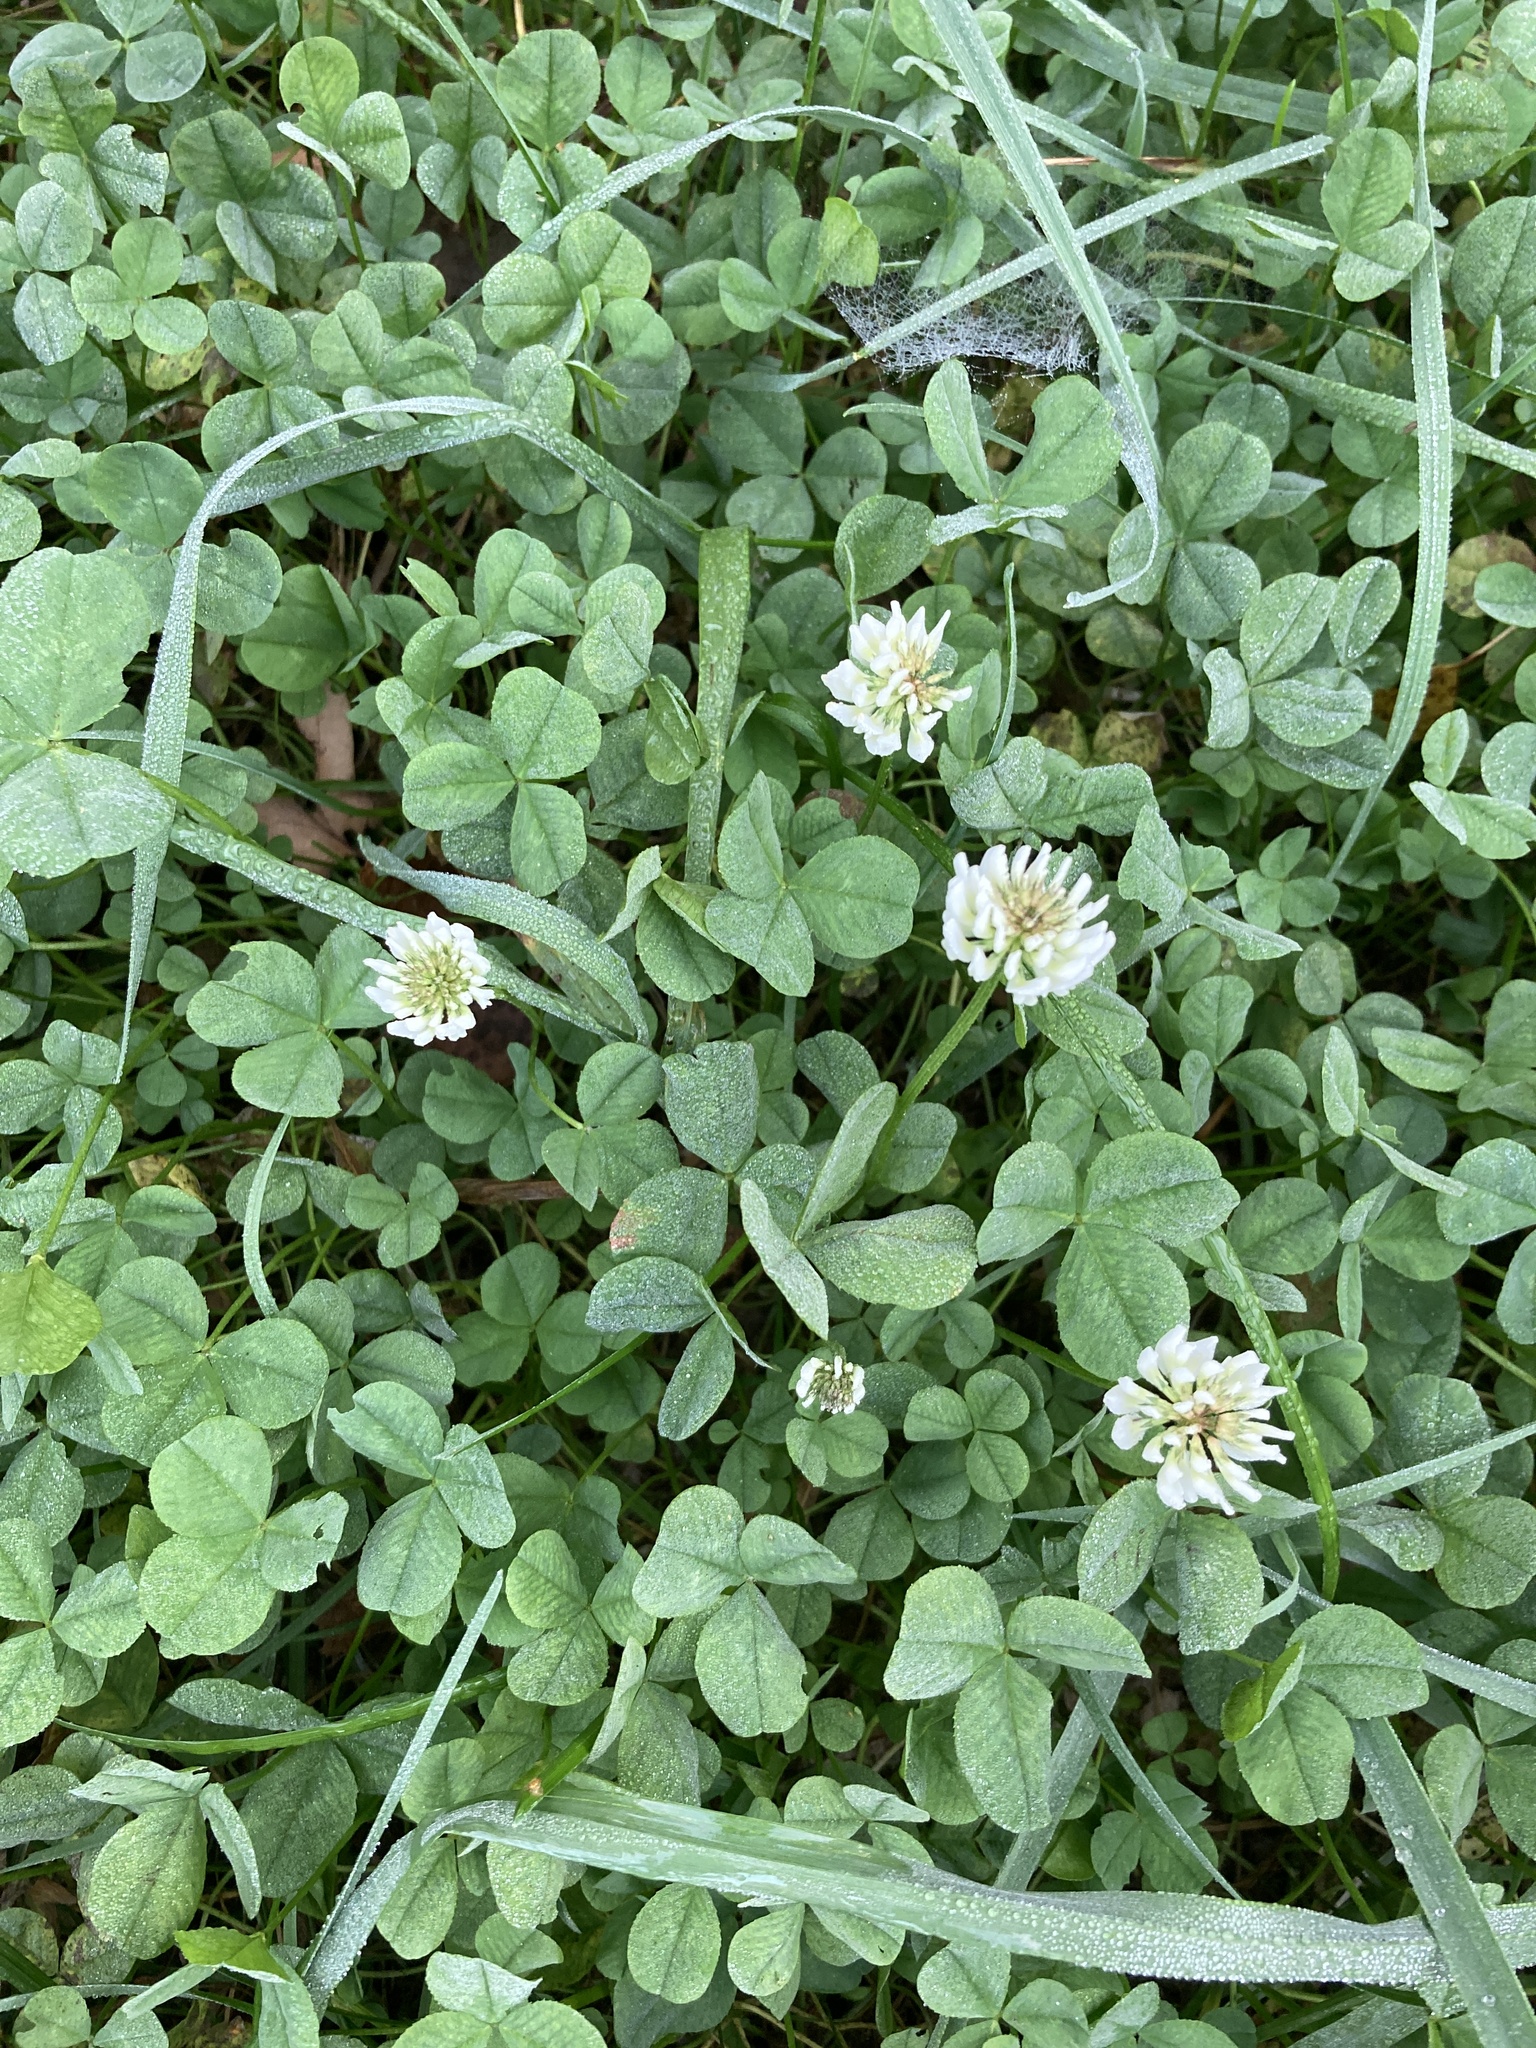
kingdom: Plantae
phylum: Tracheophyta
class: Magnoliopsida
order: Fabales
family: Fabaceae
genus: Trifolium
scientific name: Trifolium repens
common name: White clover
